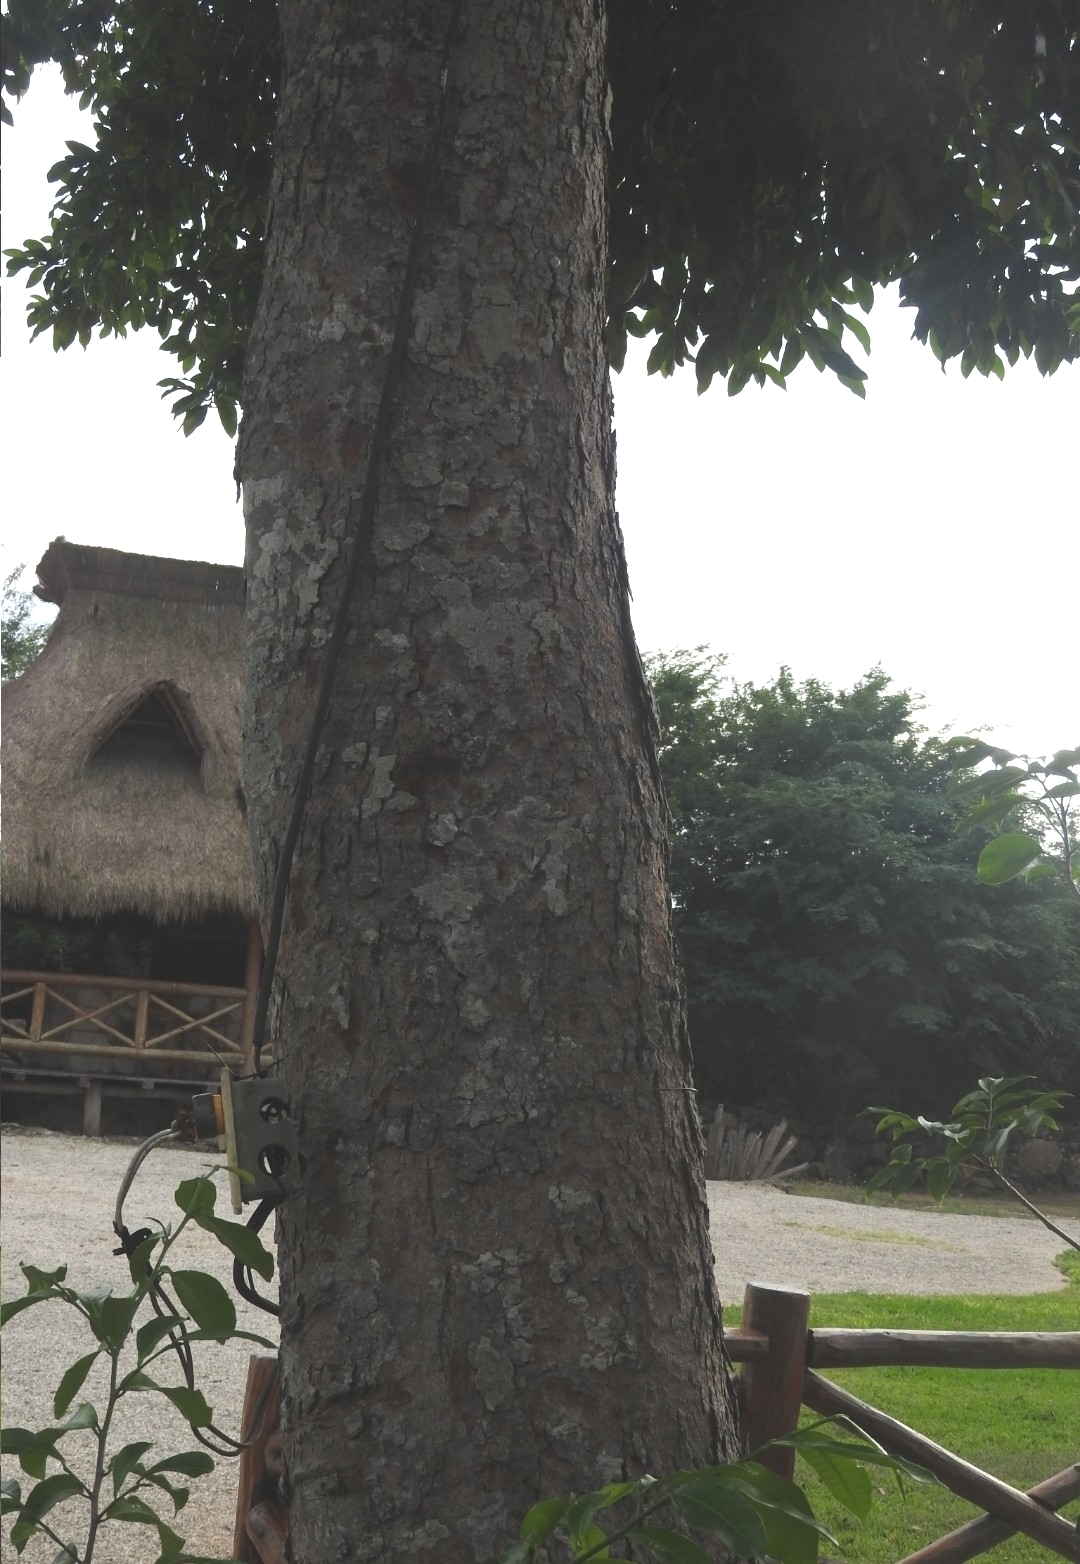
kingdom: Plantae
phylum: Tracheophyta
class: Magnoliopsida
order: Rosales
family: Moraceae
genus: Brosimum
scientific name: Brosimum alicastrum
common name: Breadnut
